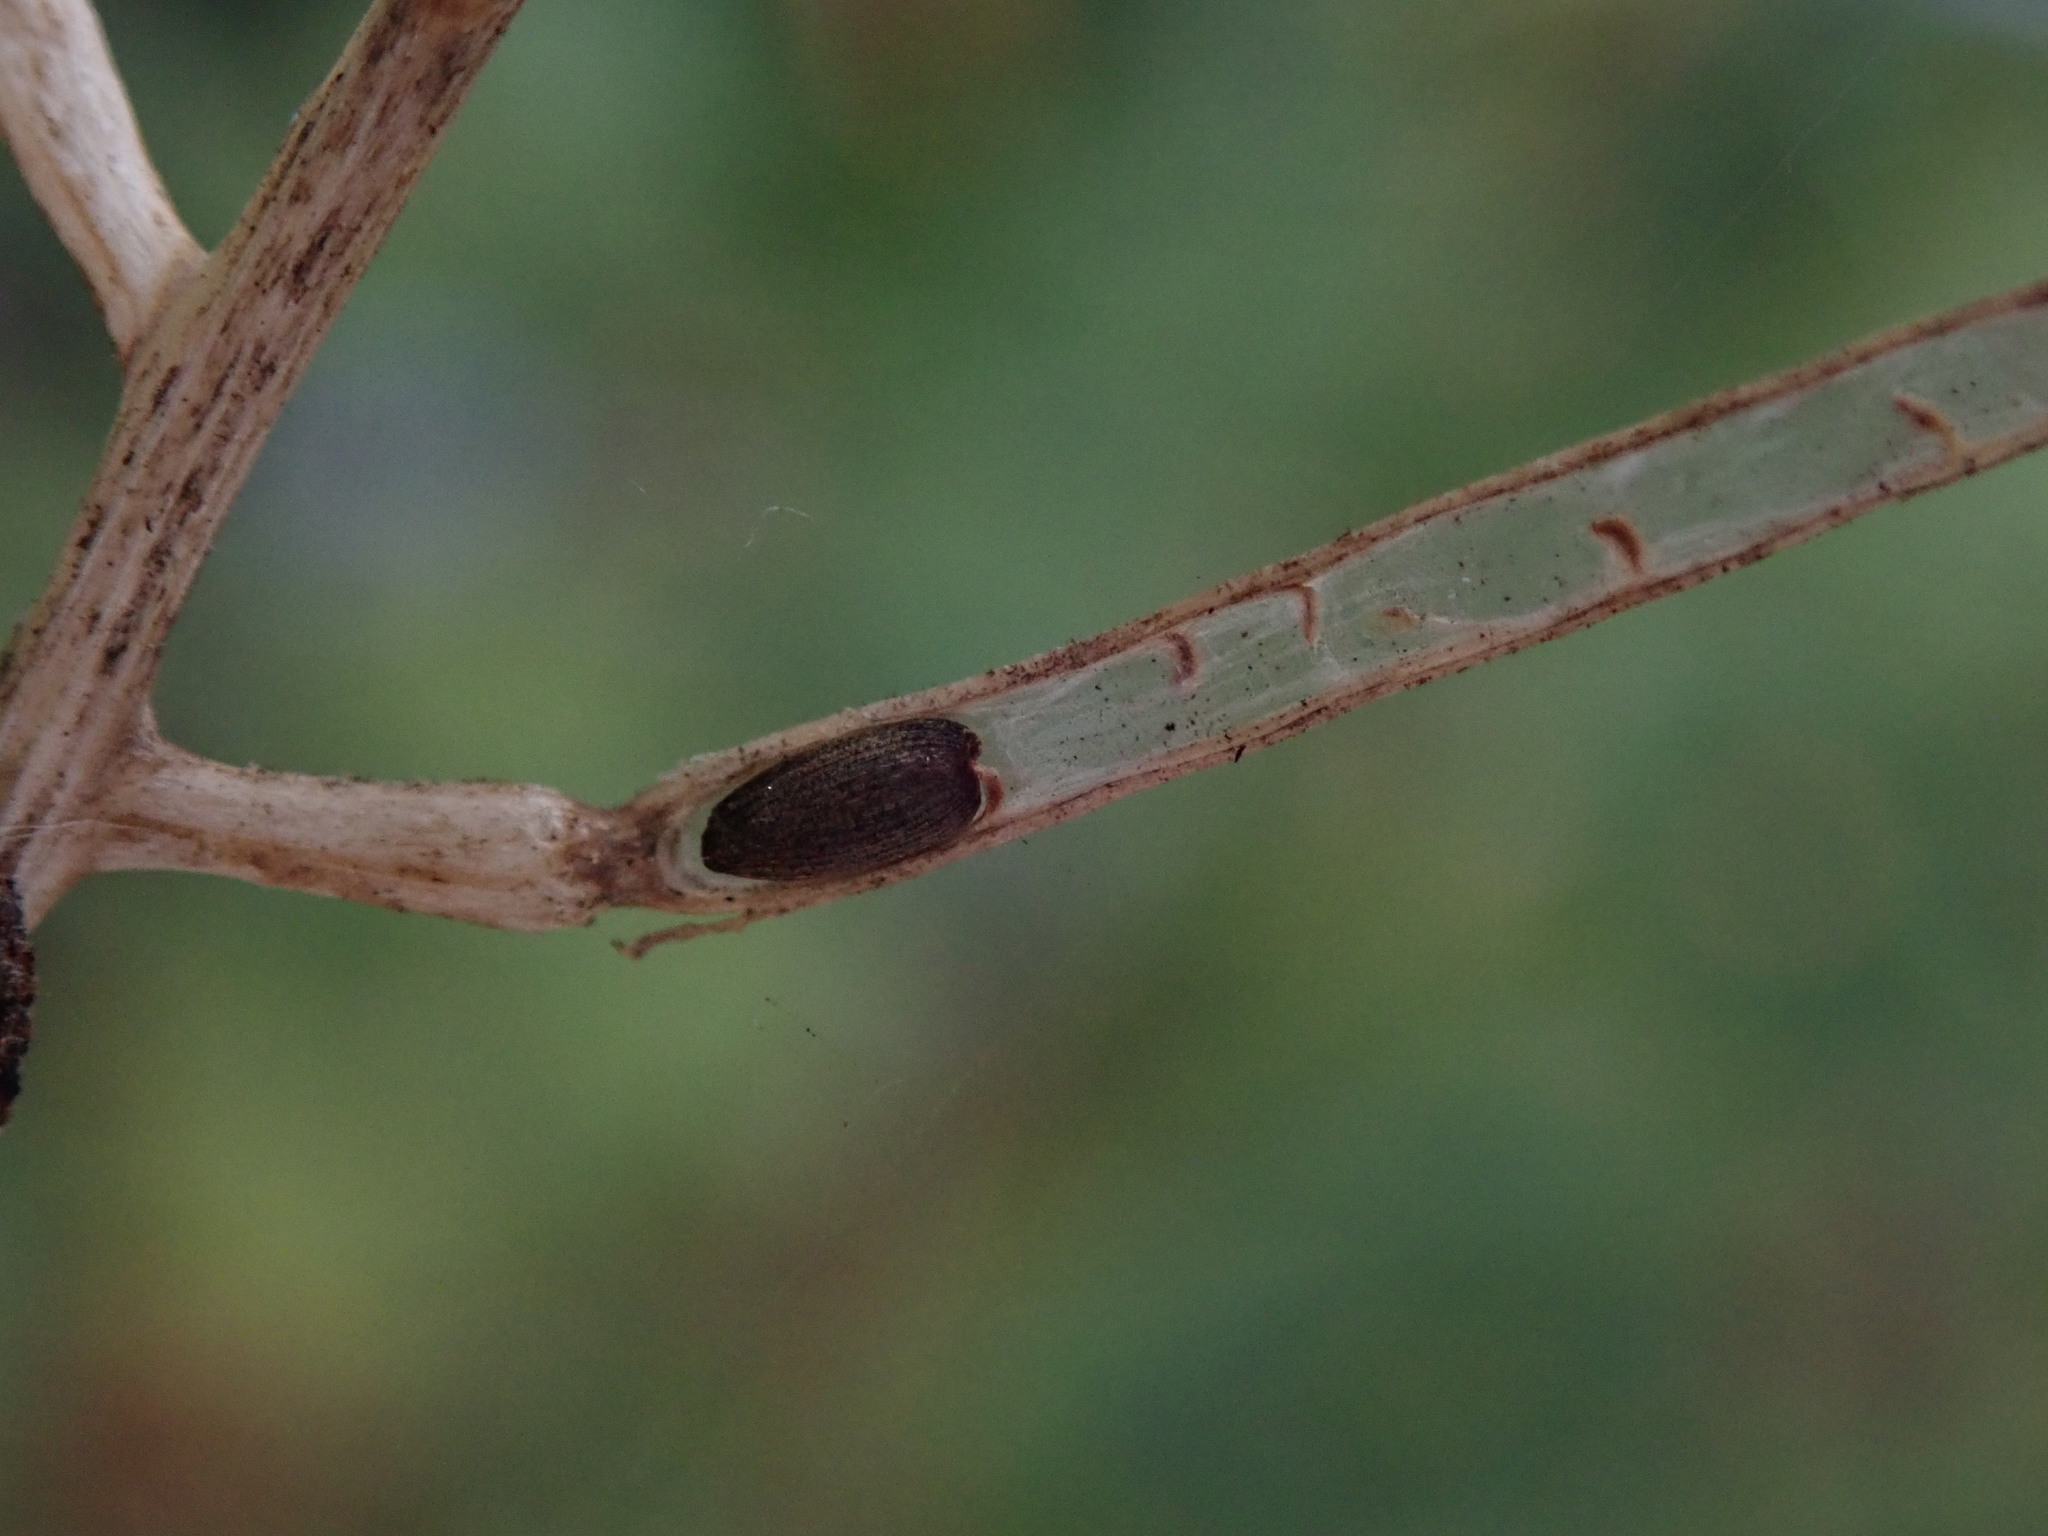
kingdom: Plantae
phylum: Tracheophyta
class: Magnoliopsida
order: Brassicales
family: Brassicaceae
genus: Alliaria
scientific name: Alliaria petiolata
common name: Garlic mustard
